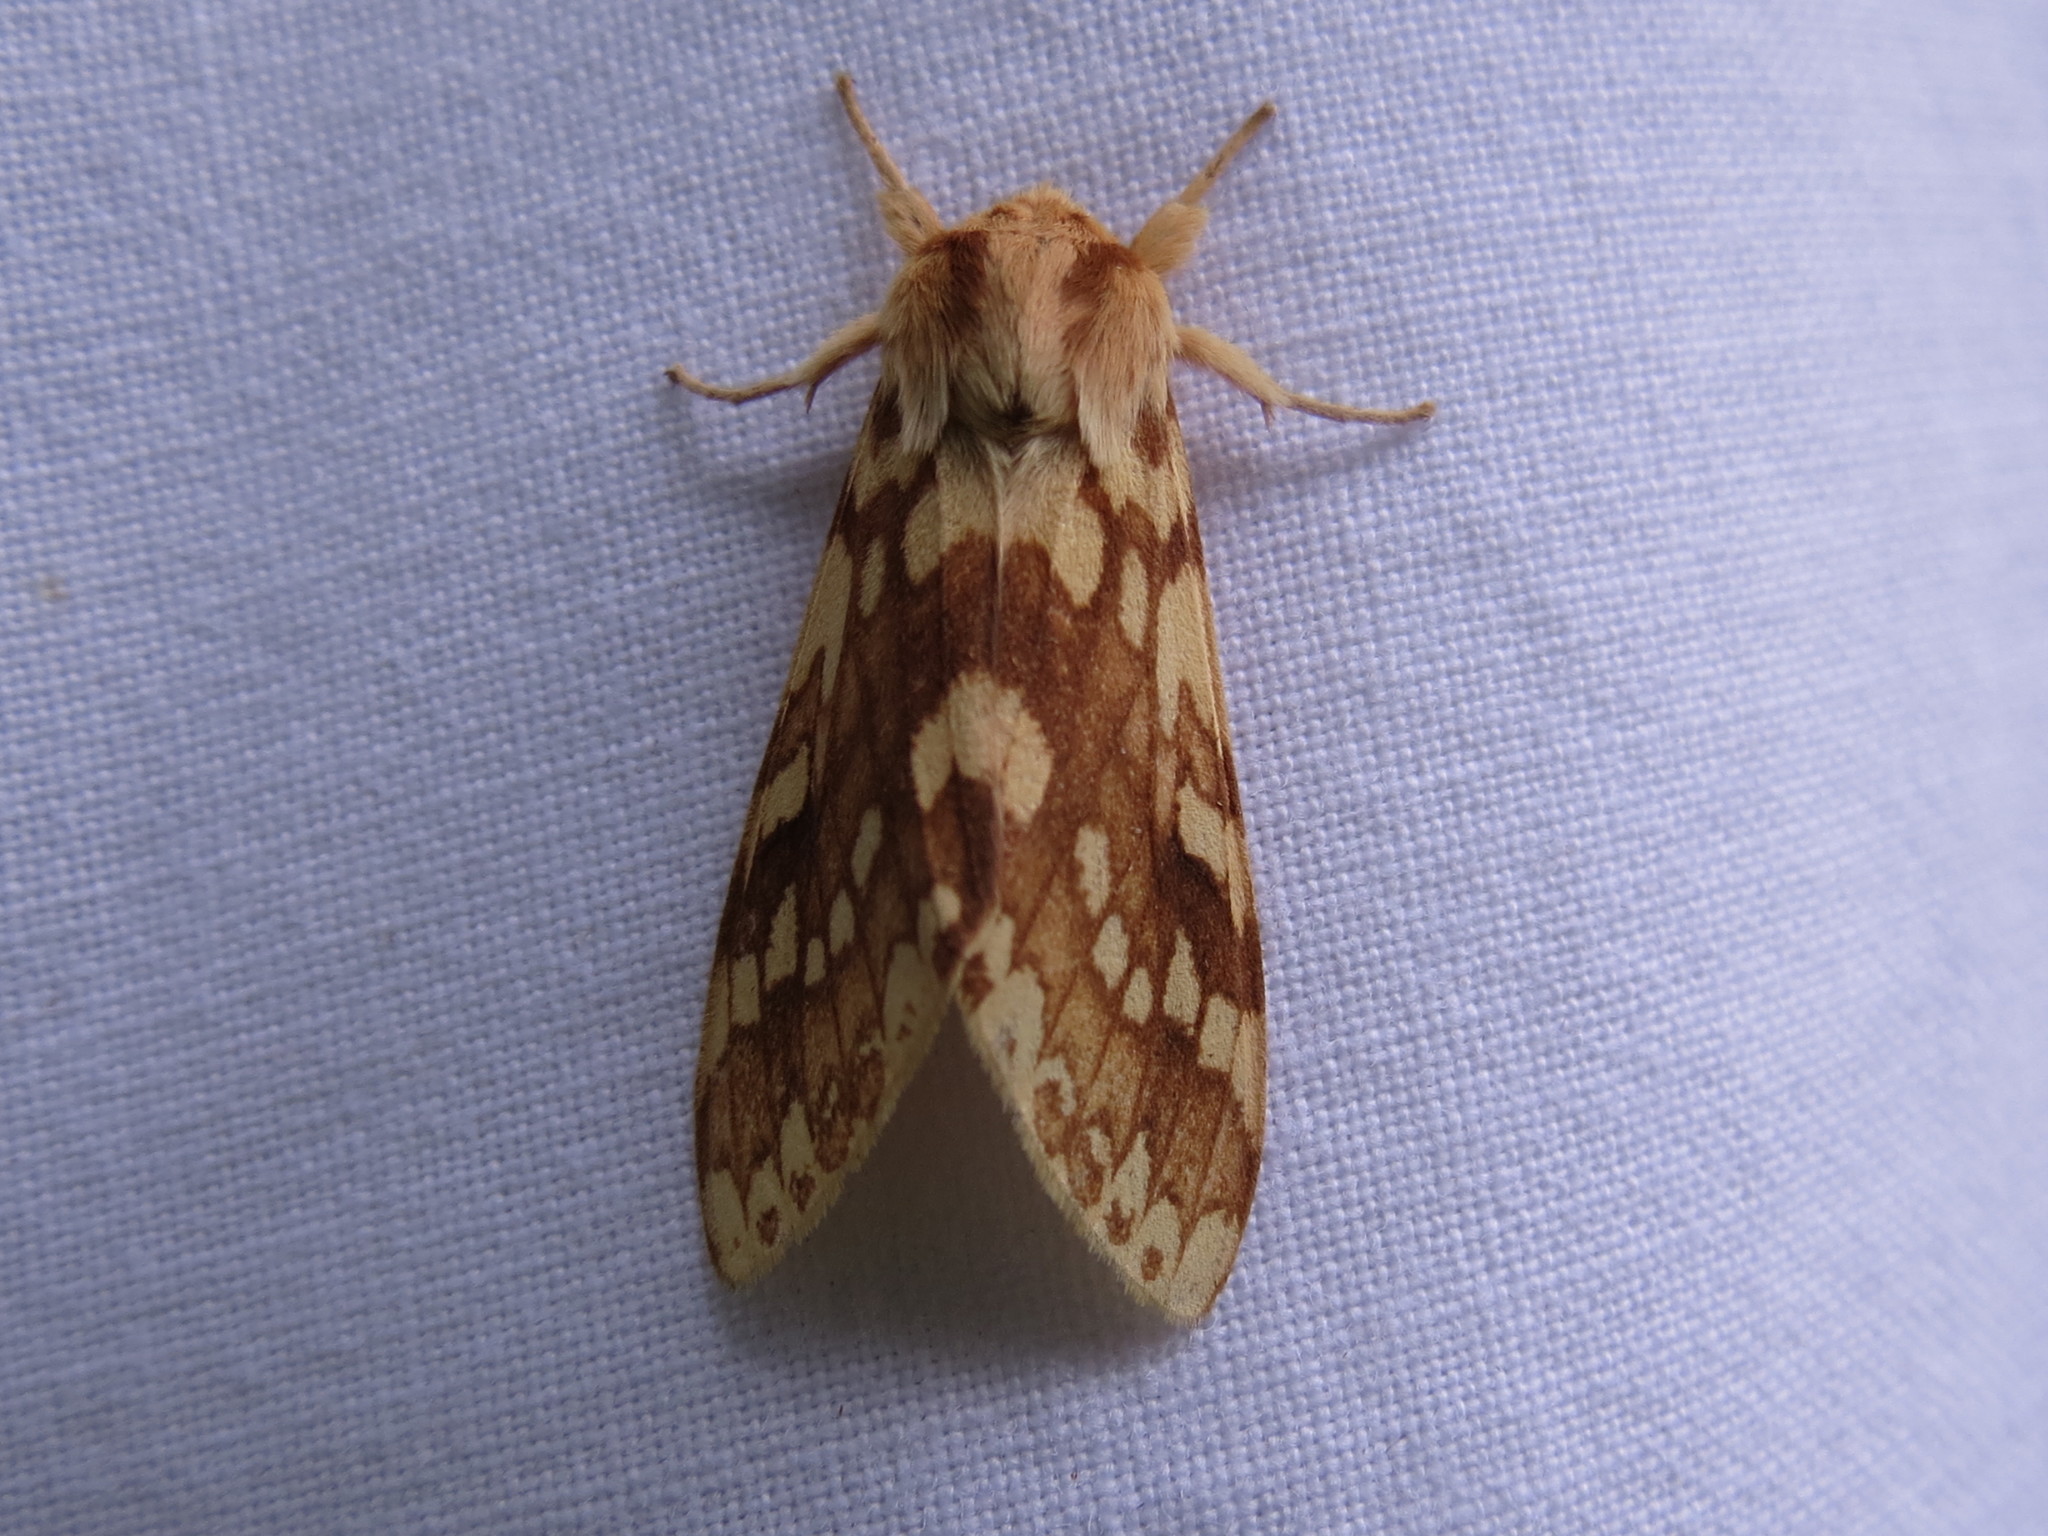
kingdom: Animalia
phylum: Arthropoda
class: Insecta
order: Lepidoptera
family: Erebidae
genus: Lophocampa
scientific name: Lophocampa maculata
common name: Spotted tussock moth
